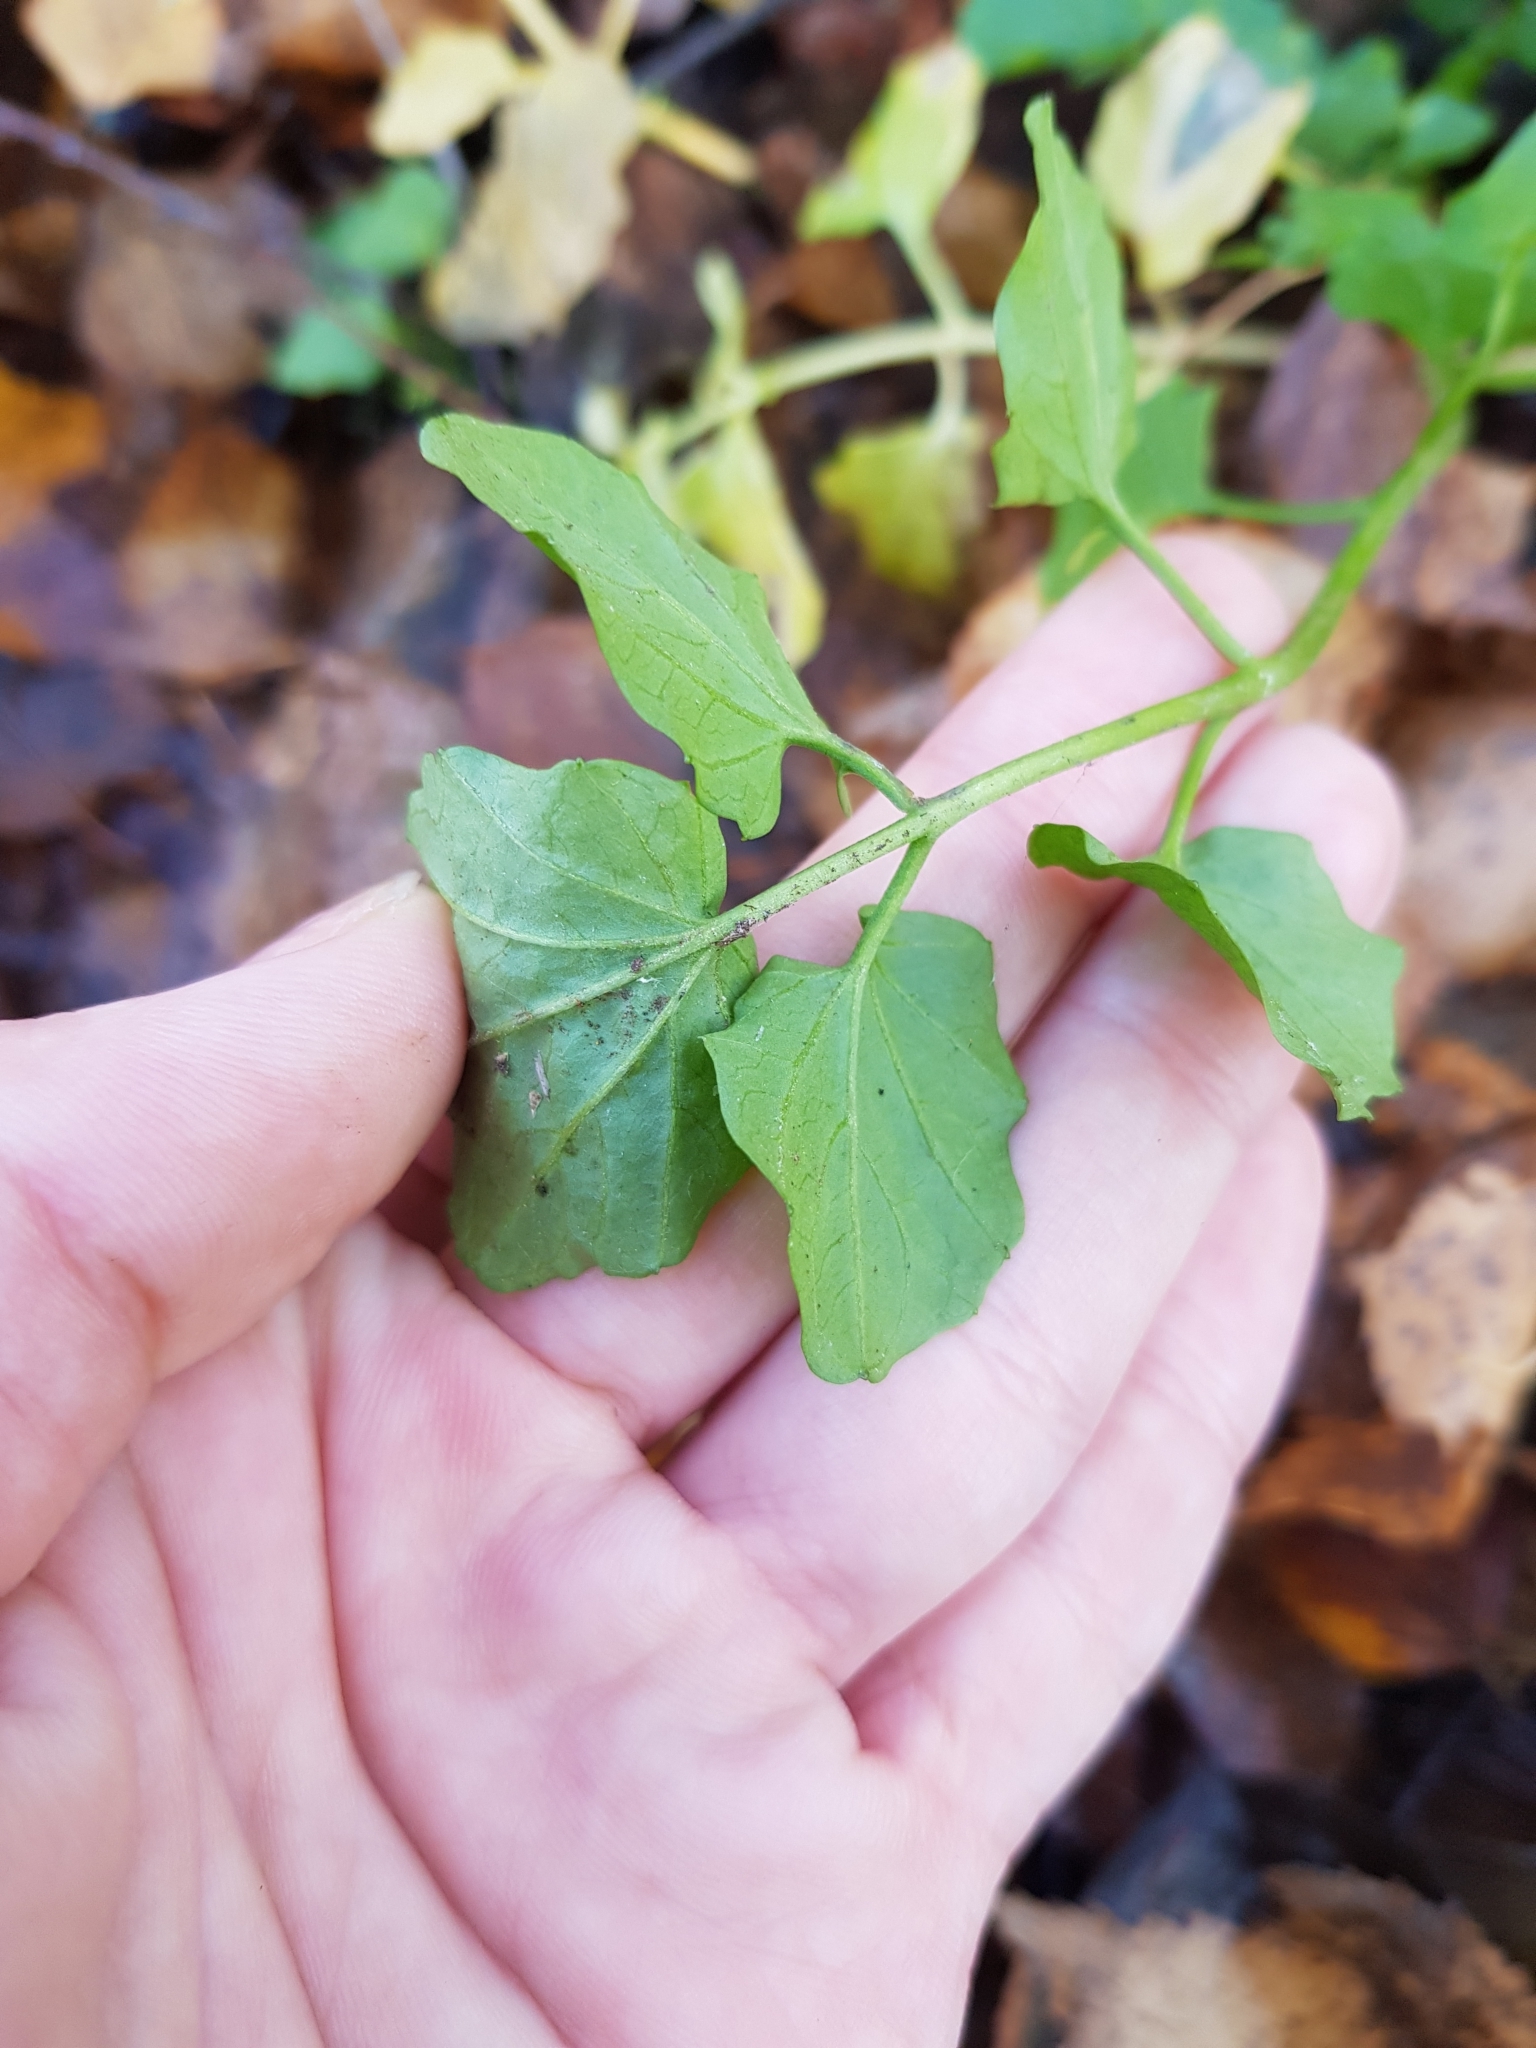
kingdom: Plantae
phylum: Tracheophyta
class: Magnoliopsida
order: Brassicales
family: Brassicaceae
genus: Cardamine
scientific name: Cardamine amara
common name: Large bitter-cress
